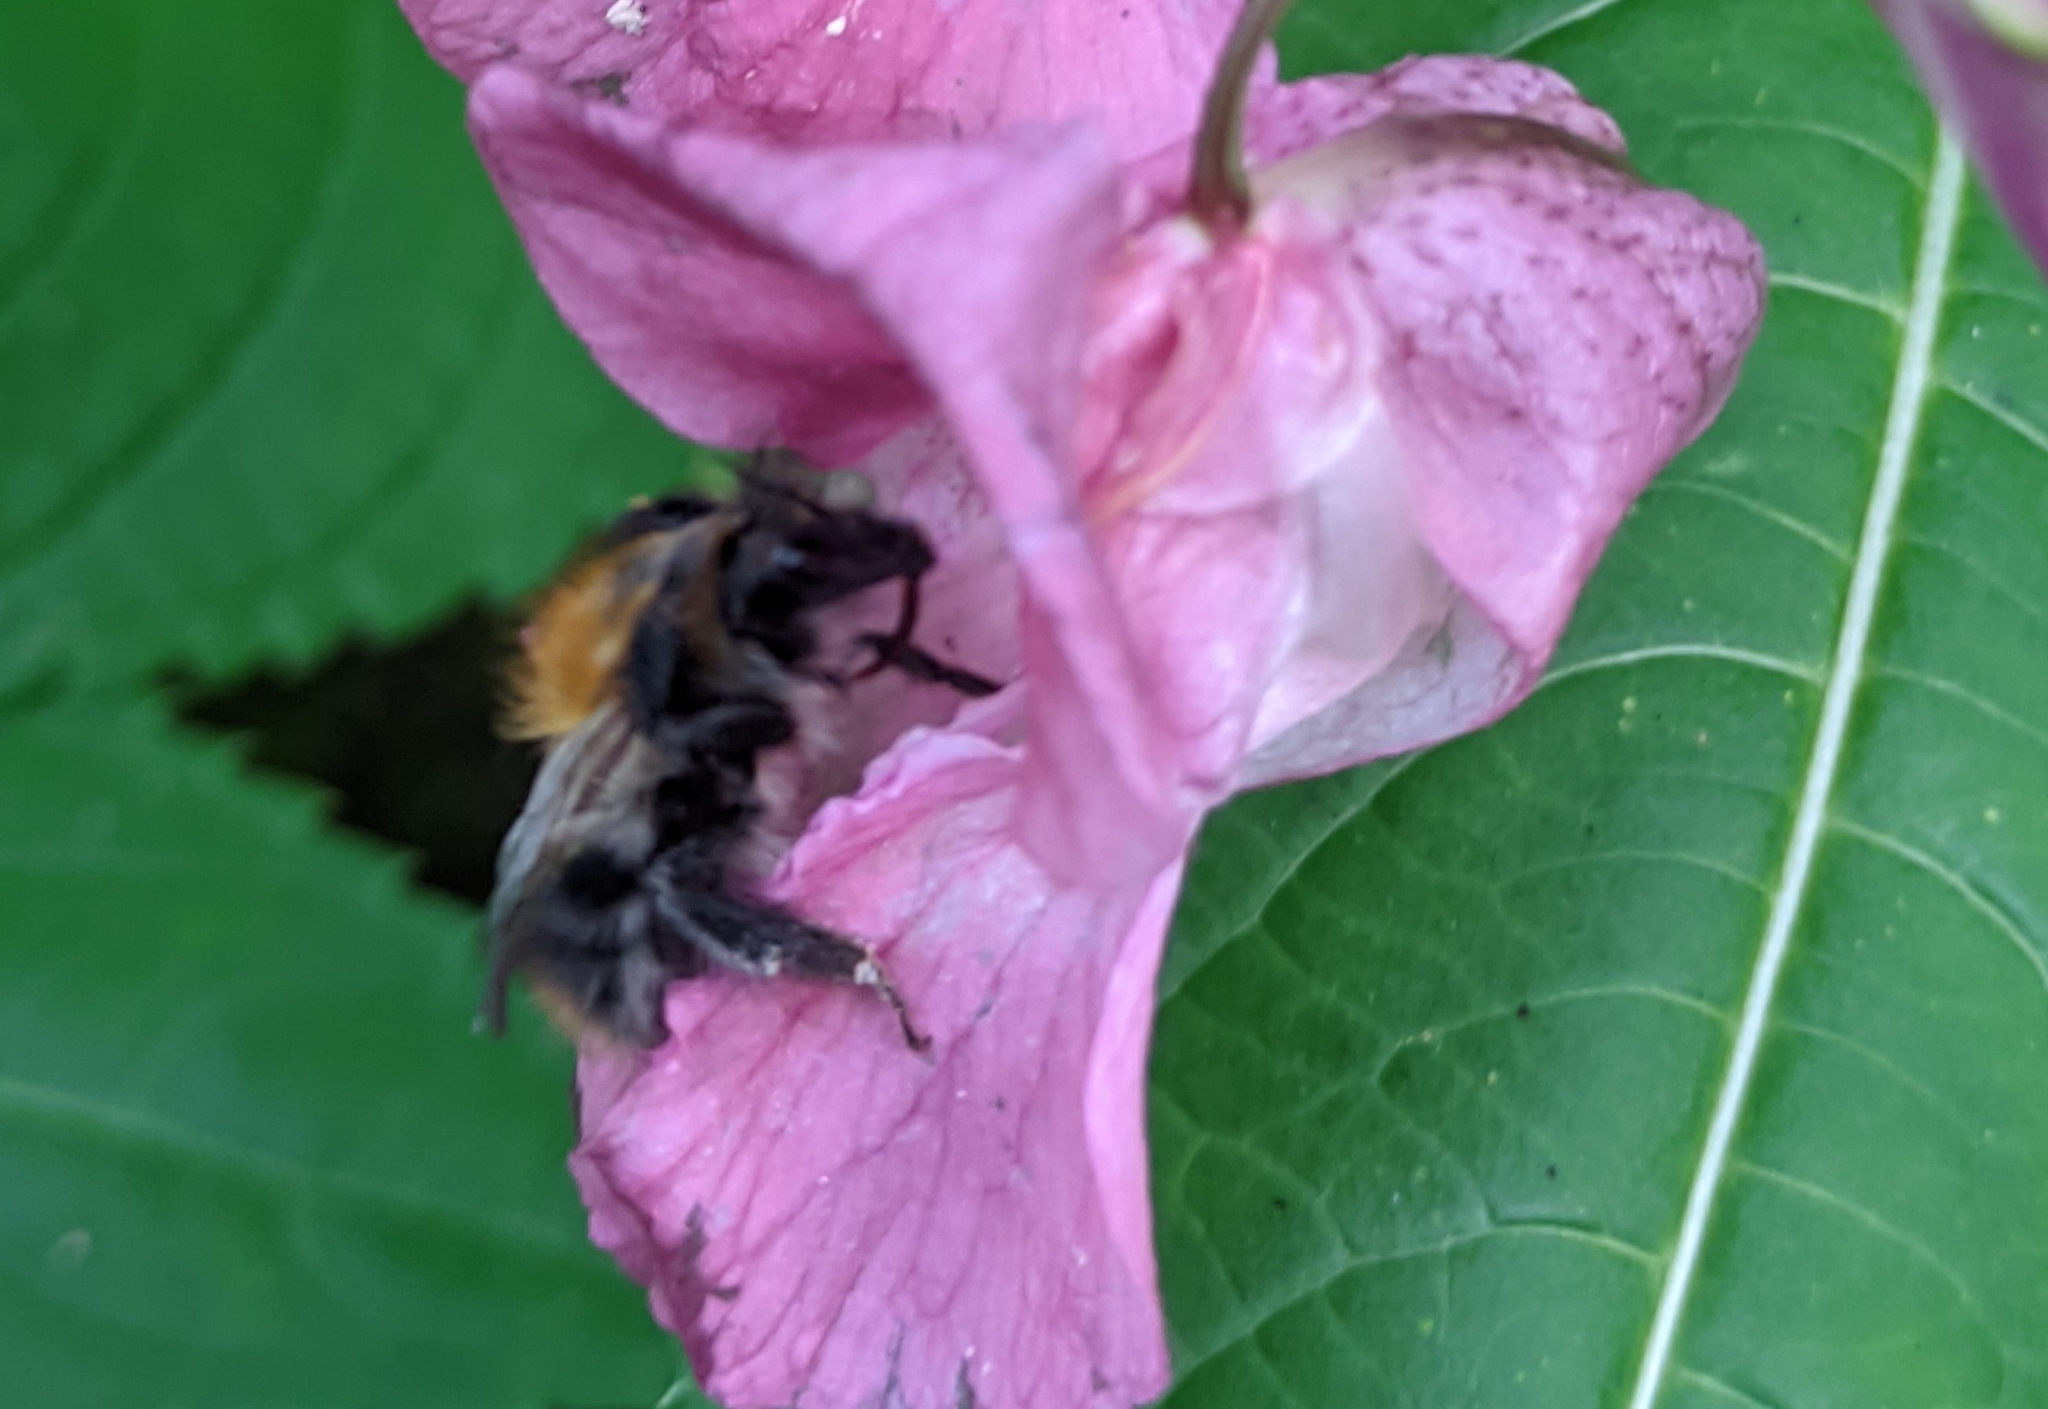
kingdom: Animalia
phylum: Arthropoda
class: Insecta
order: Hymenoptera
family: Apidae
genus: Bombus
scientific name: Bombus pascuorum
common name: Common carder bee
